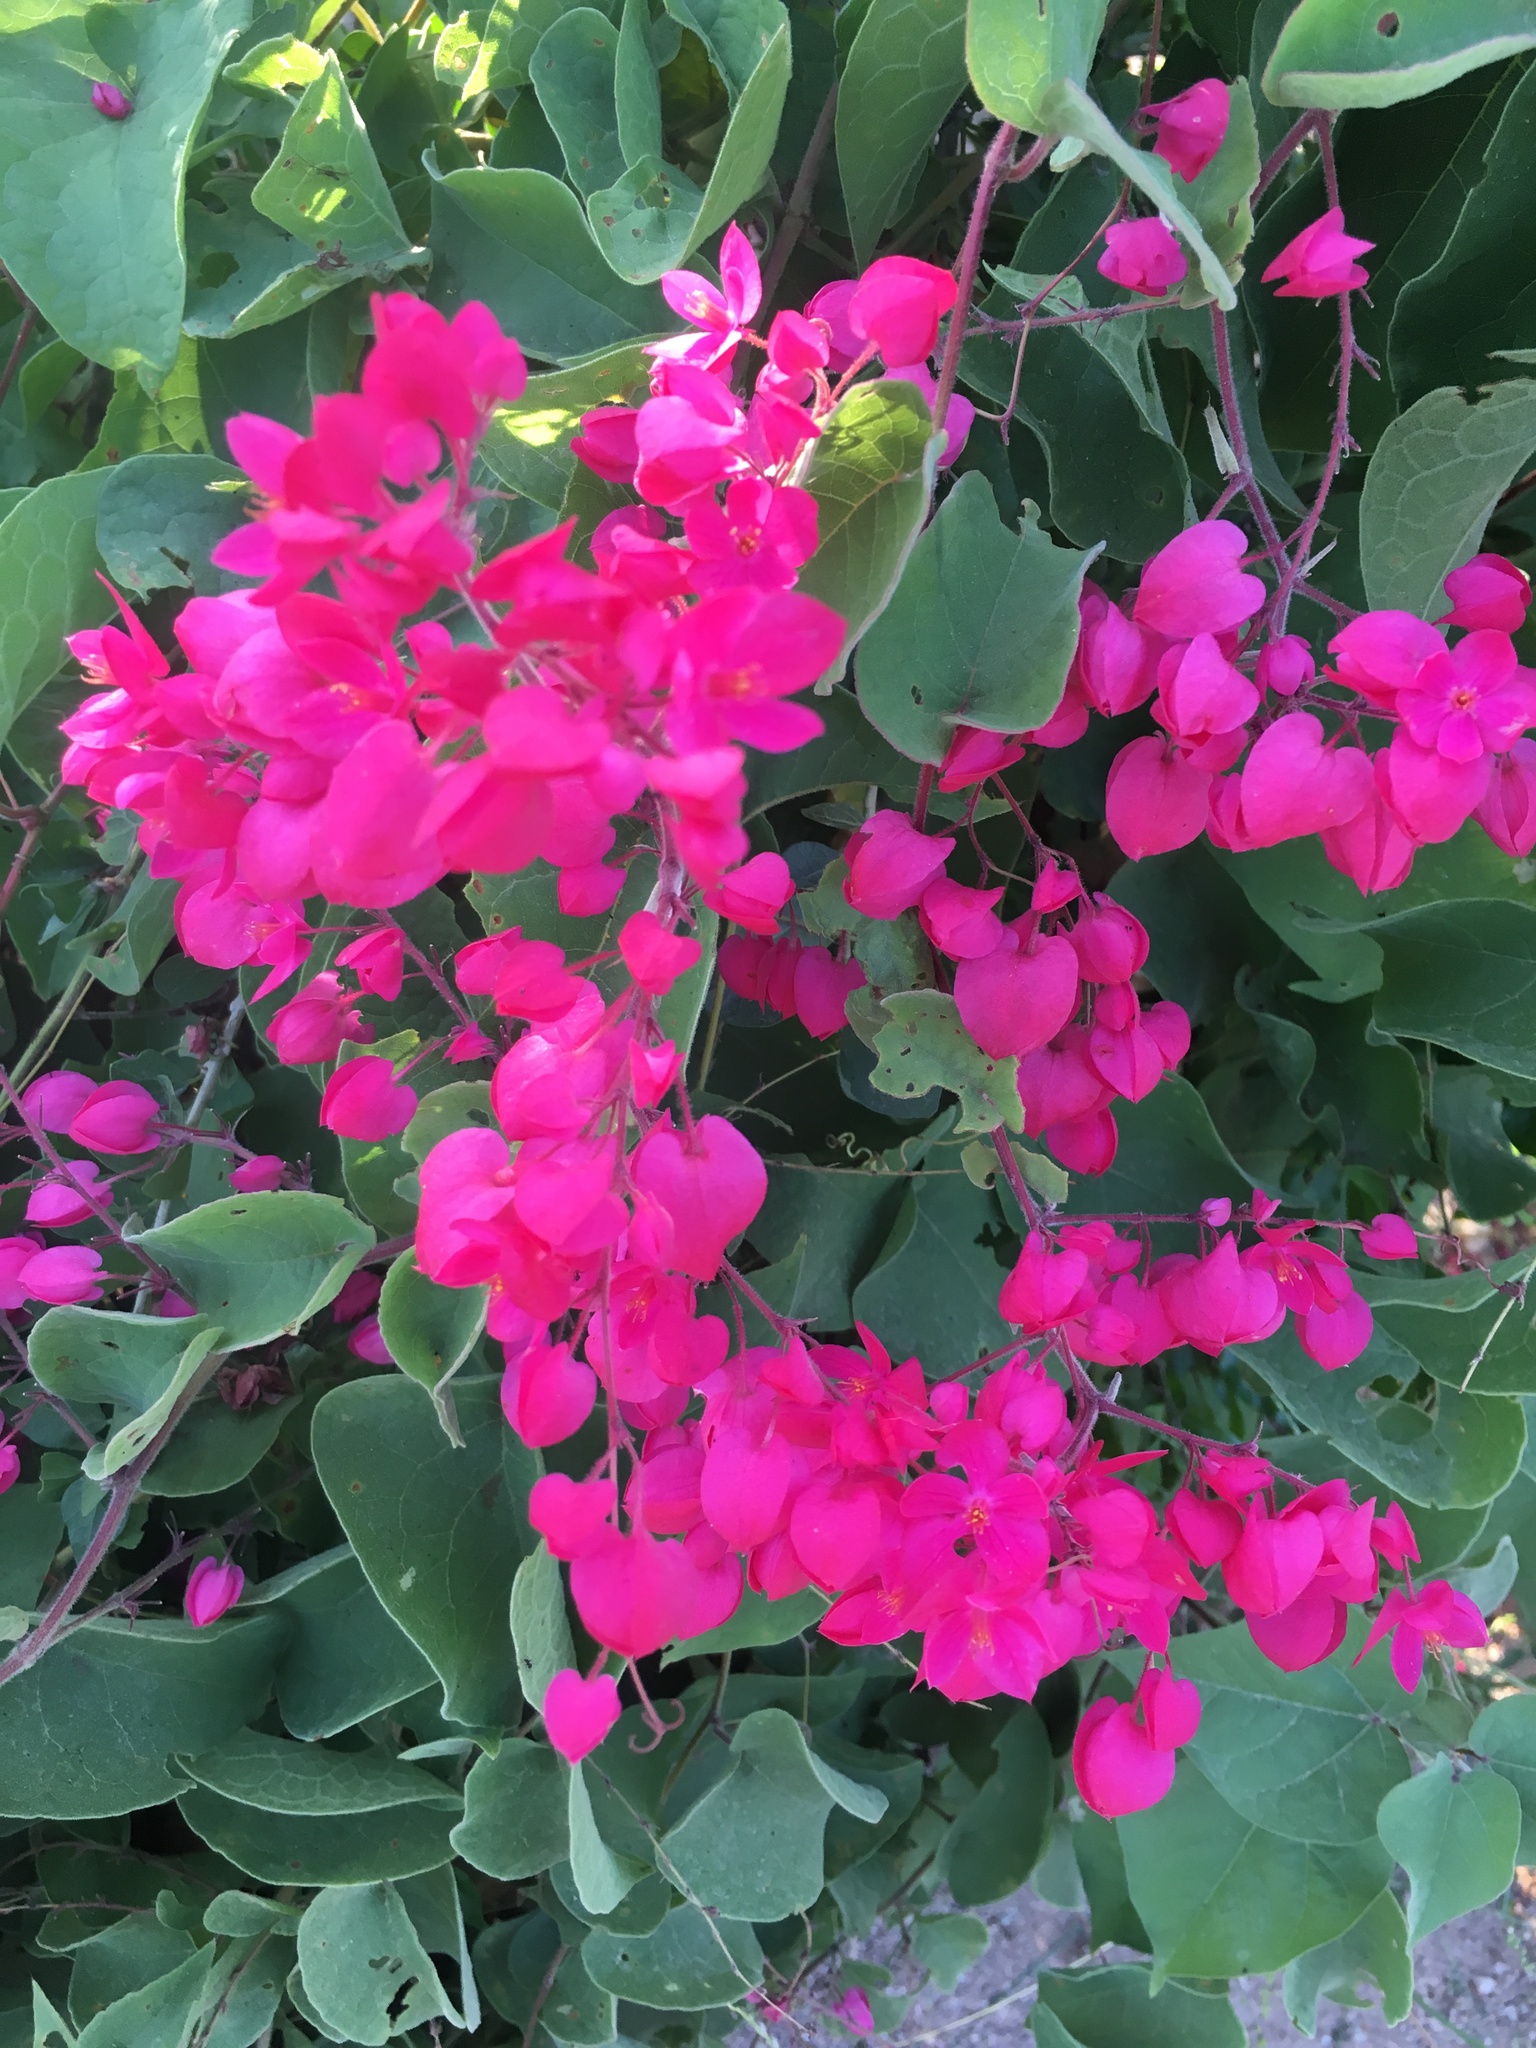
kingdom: Plantae
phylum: Tracheophyta
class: Magnoliopsida
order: Caryophyllales
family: Polygonaceae
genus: Antigonon
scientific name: Antigonon leptopus
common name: Coral vine
